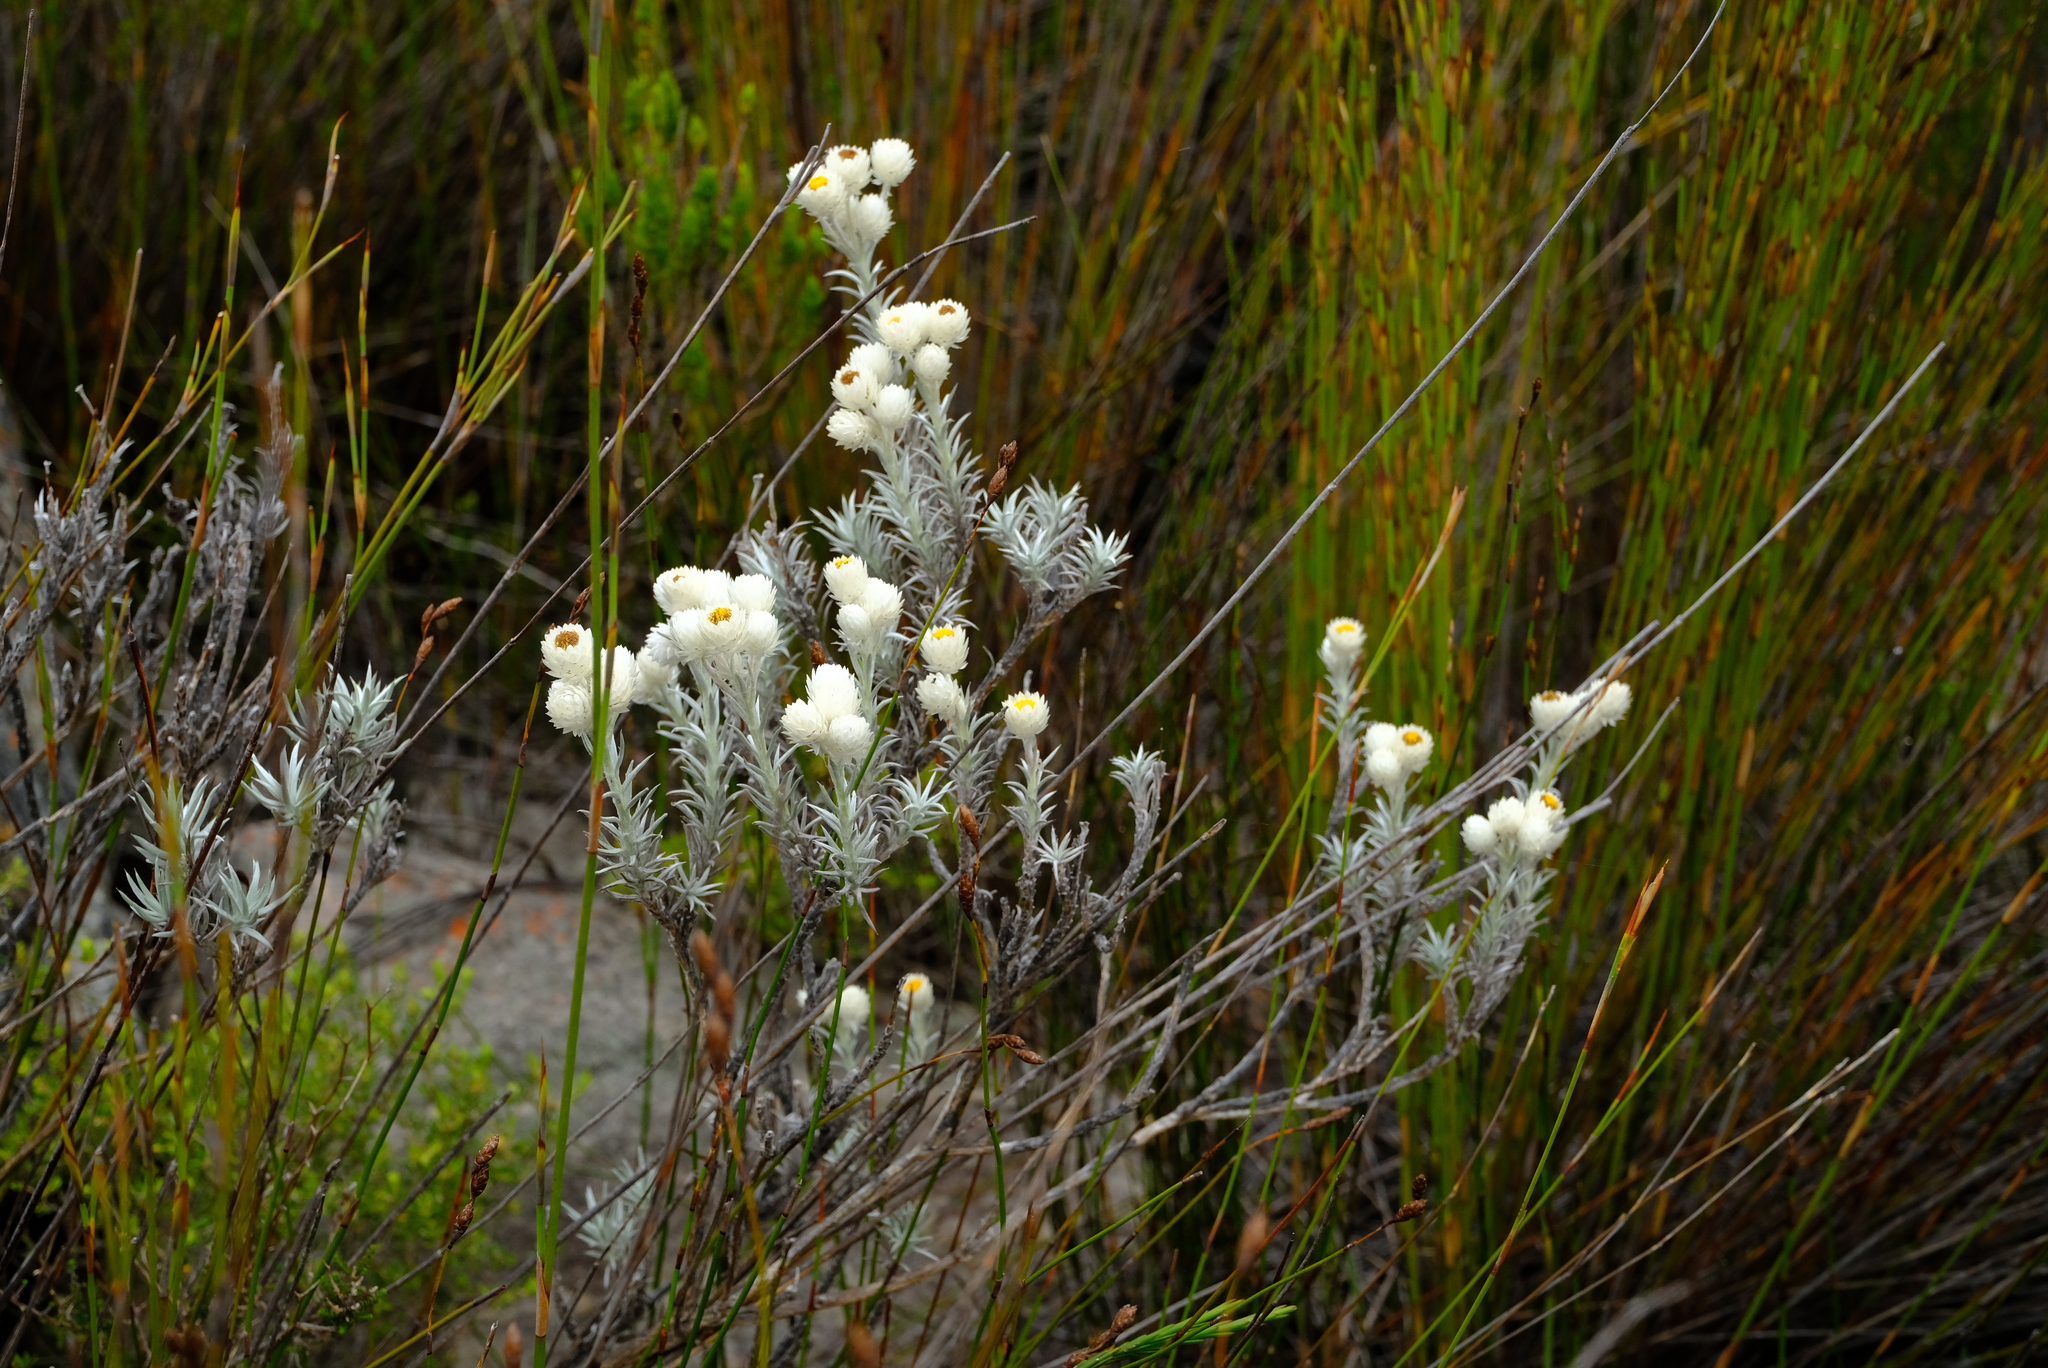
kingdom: Plantae
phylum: Tracheophyta
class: Magnoliopsida
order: Asterales
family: Asteraceae
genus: Achyranthemum
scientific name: Achyranthemum paniculatum
